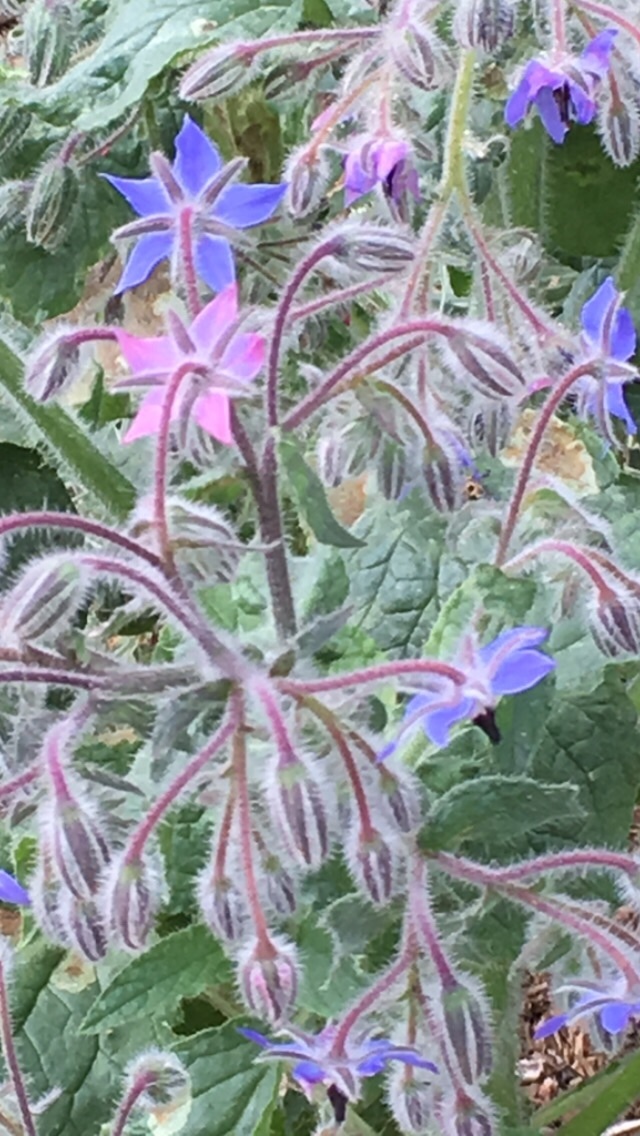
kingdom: Plantae
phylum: Tracheophyta
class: Magnoliopsida
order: Boraginales
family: Boraginaceae
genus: Borago
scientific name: Borago officinalis
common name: Borage
